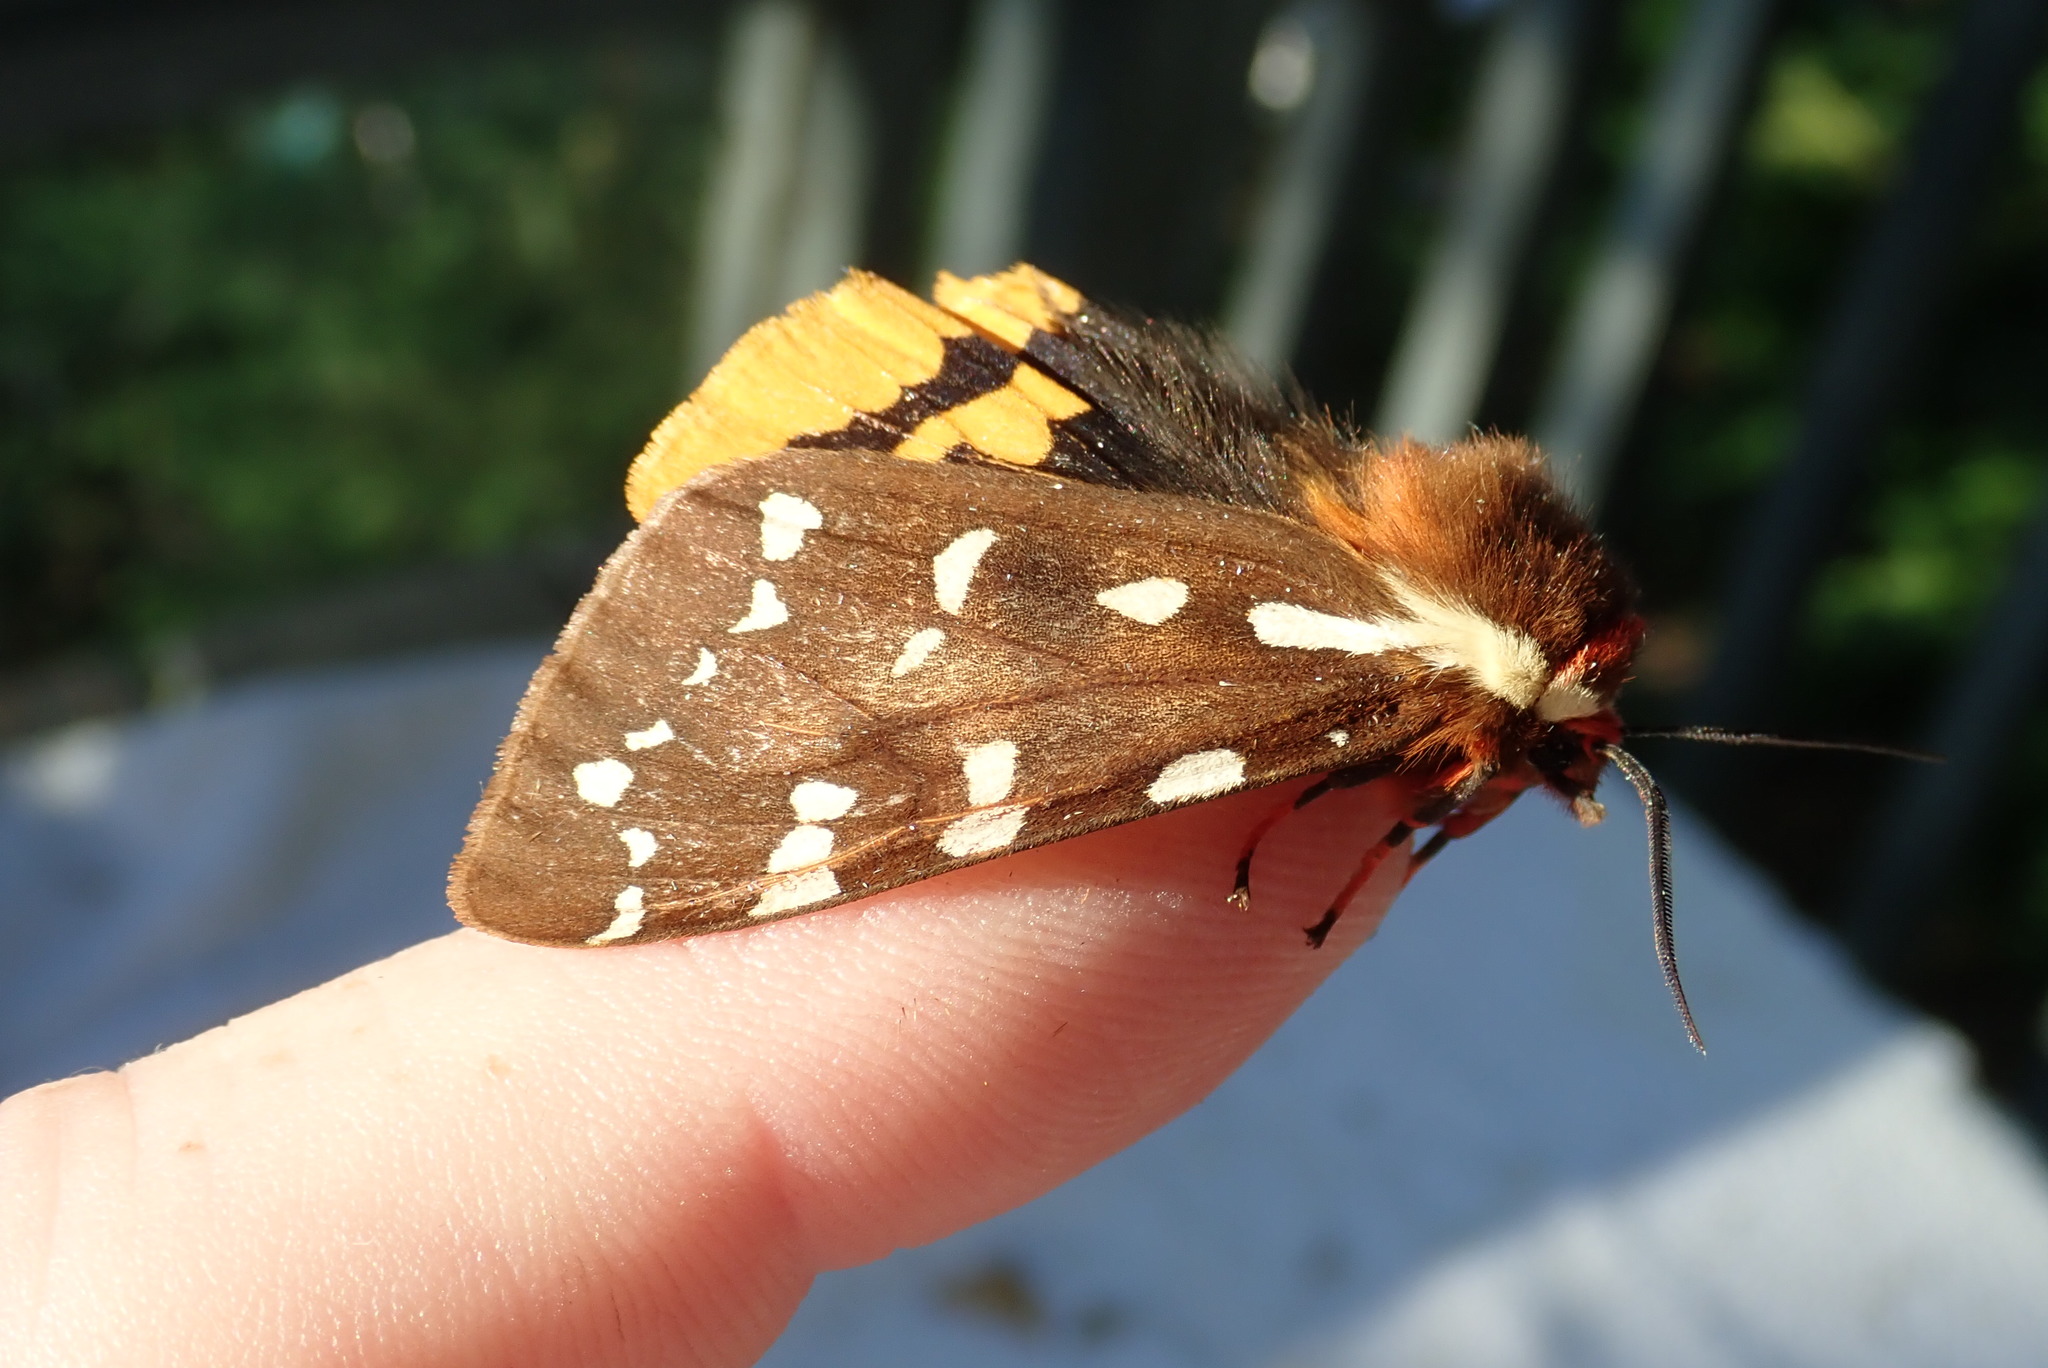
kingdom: Animalia
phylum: Arthropoda
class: Insecta
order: Lepidoptera
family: Erebidae
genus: Arctia
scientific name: Arctia parthenos
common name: St. lawrence tiger moth
